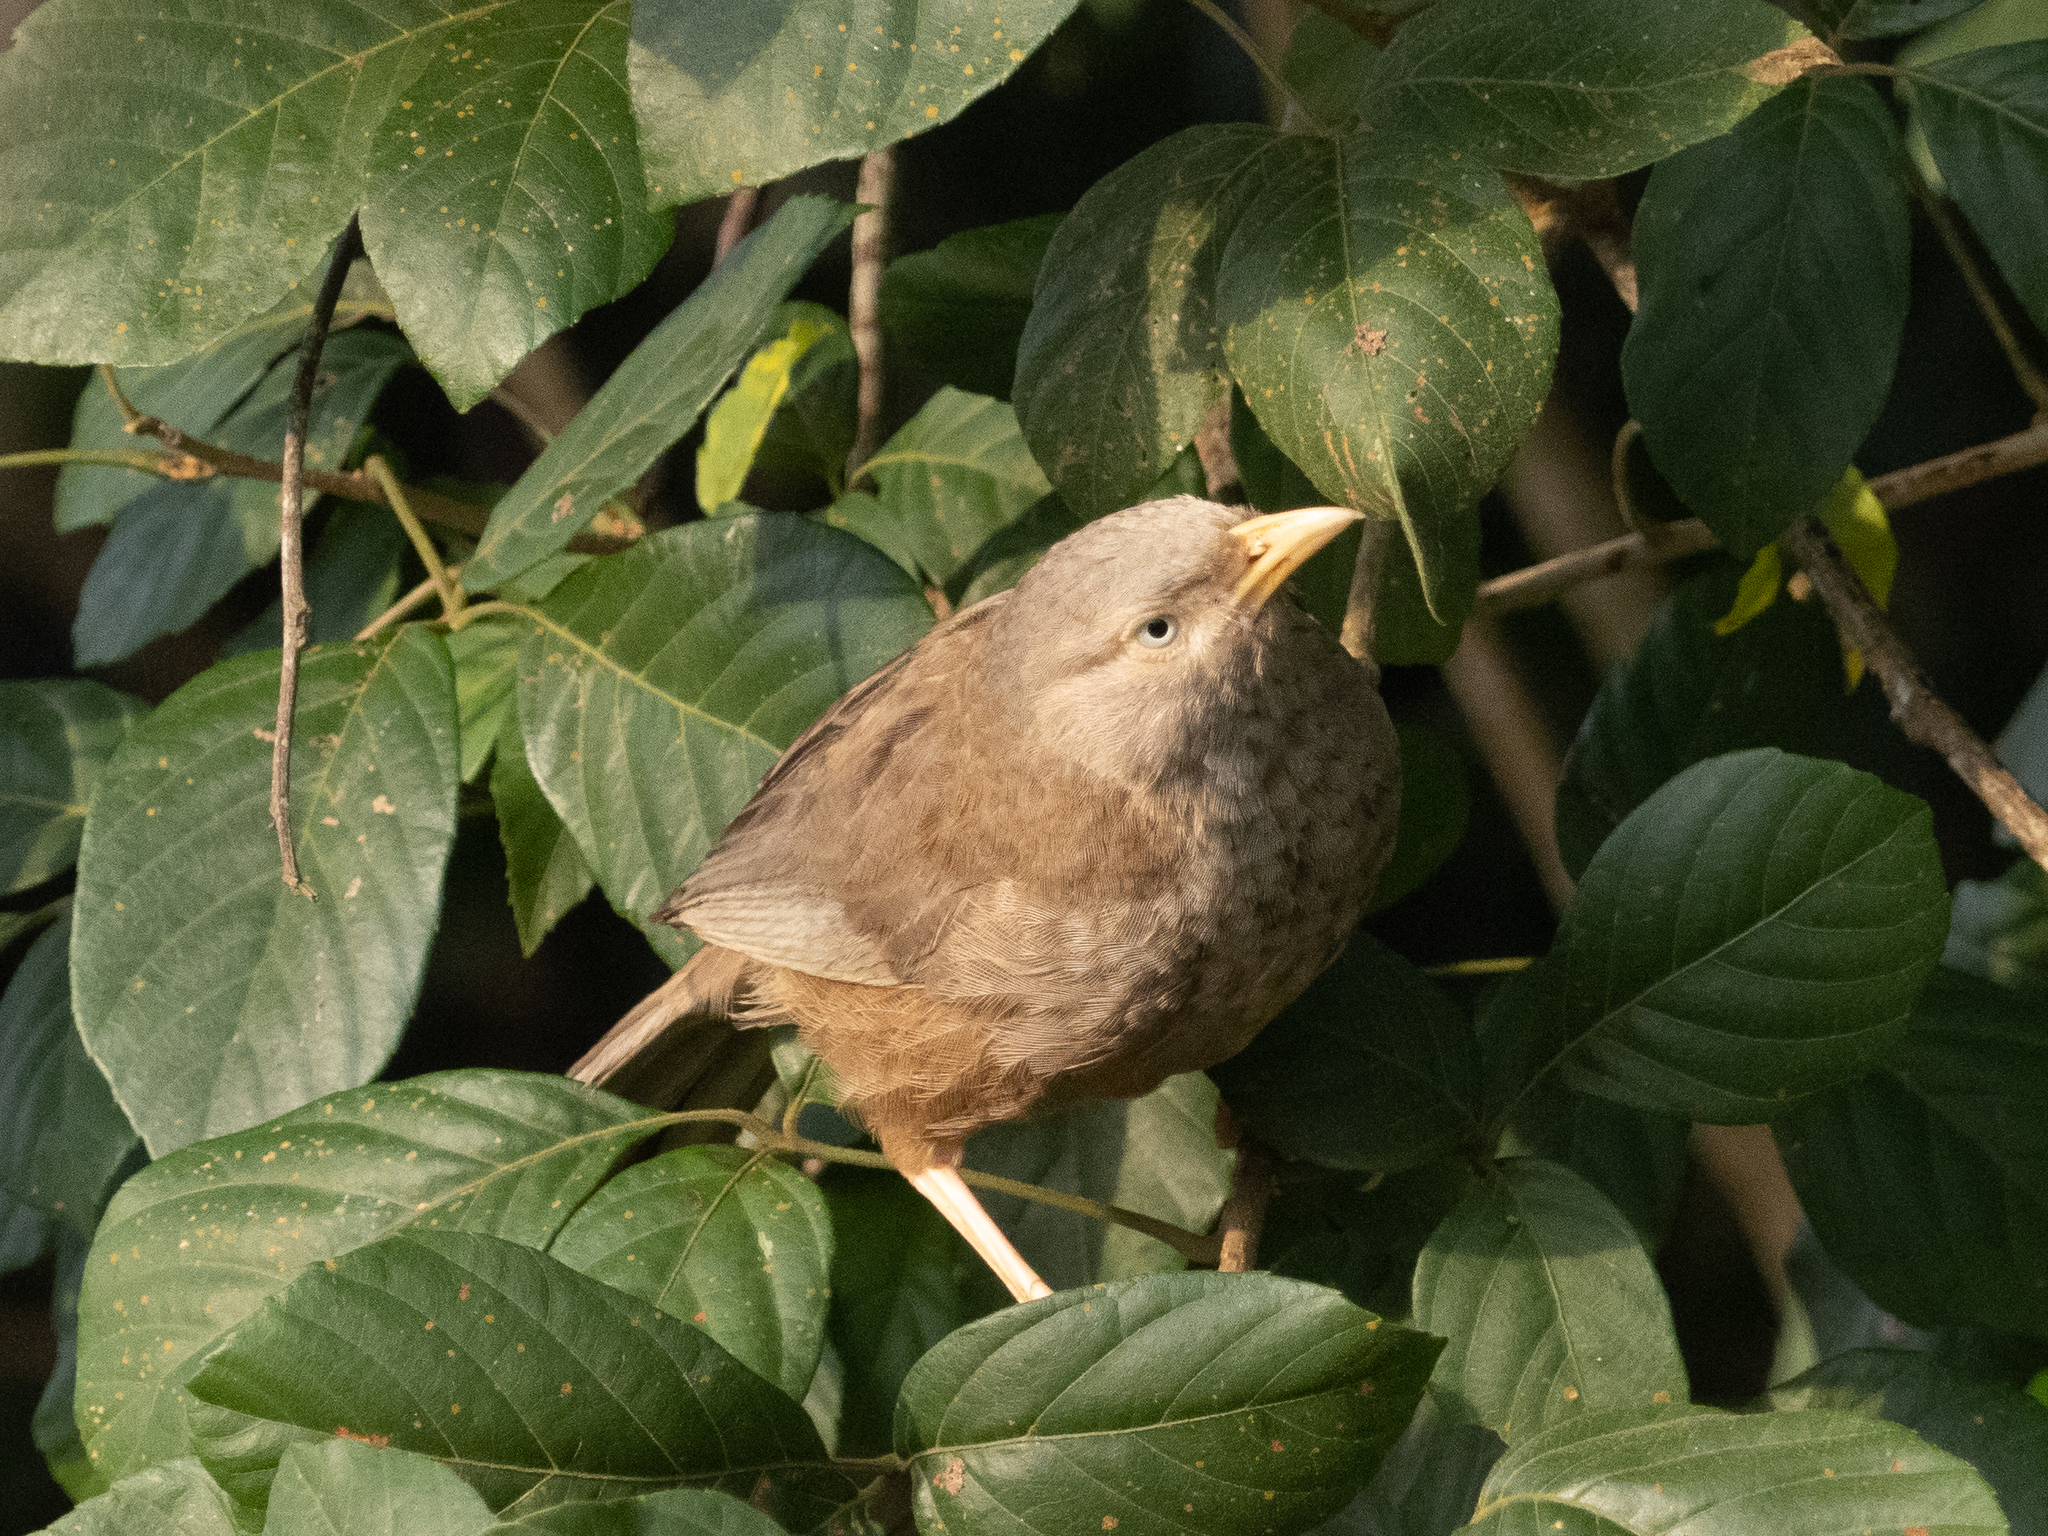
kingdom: Animalia
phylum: Chordata
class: Aves
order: Passeriformes
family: Leiothrichidae
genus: Turdoides
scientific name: Turdoides affinis
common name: Yellow-billed babbler
